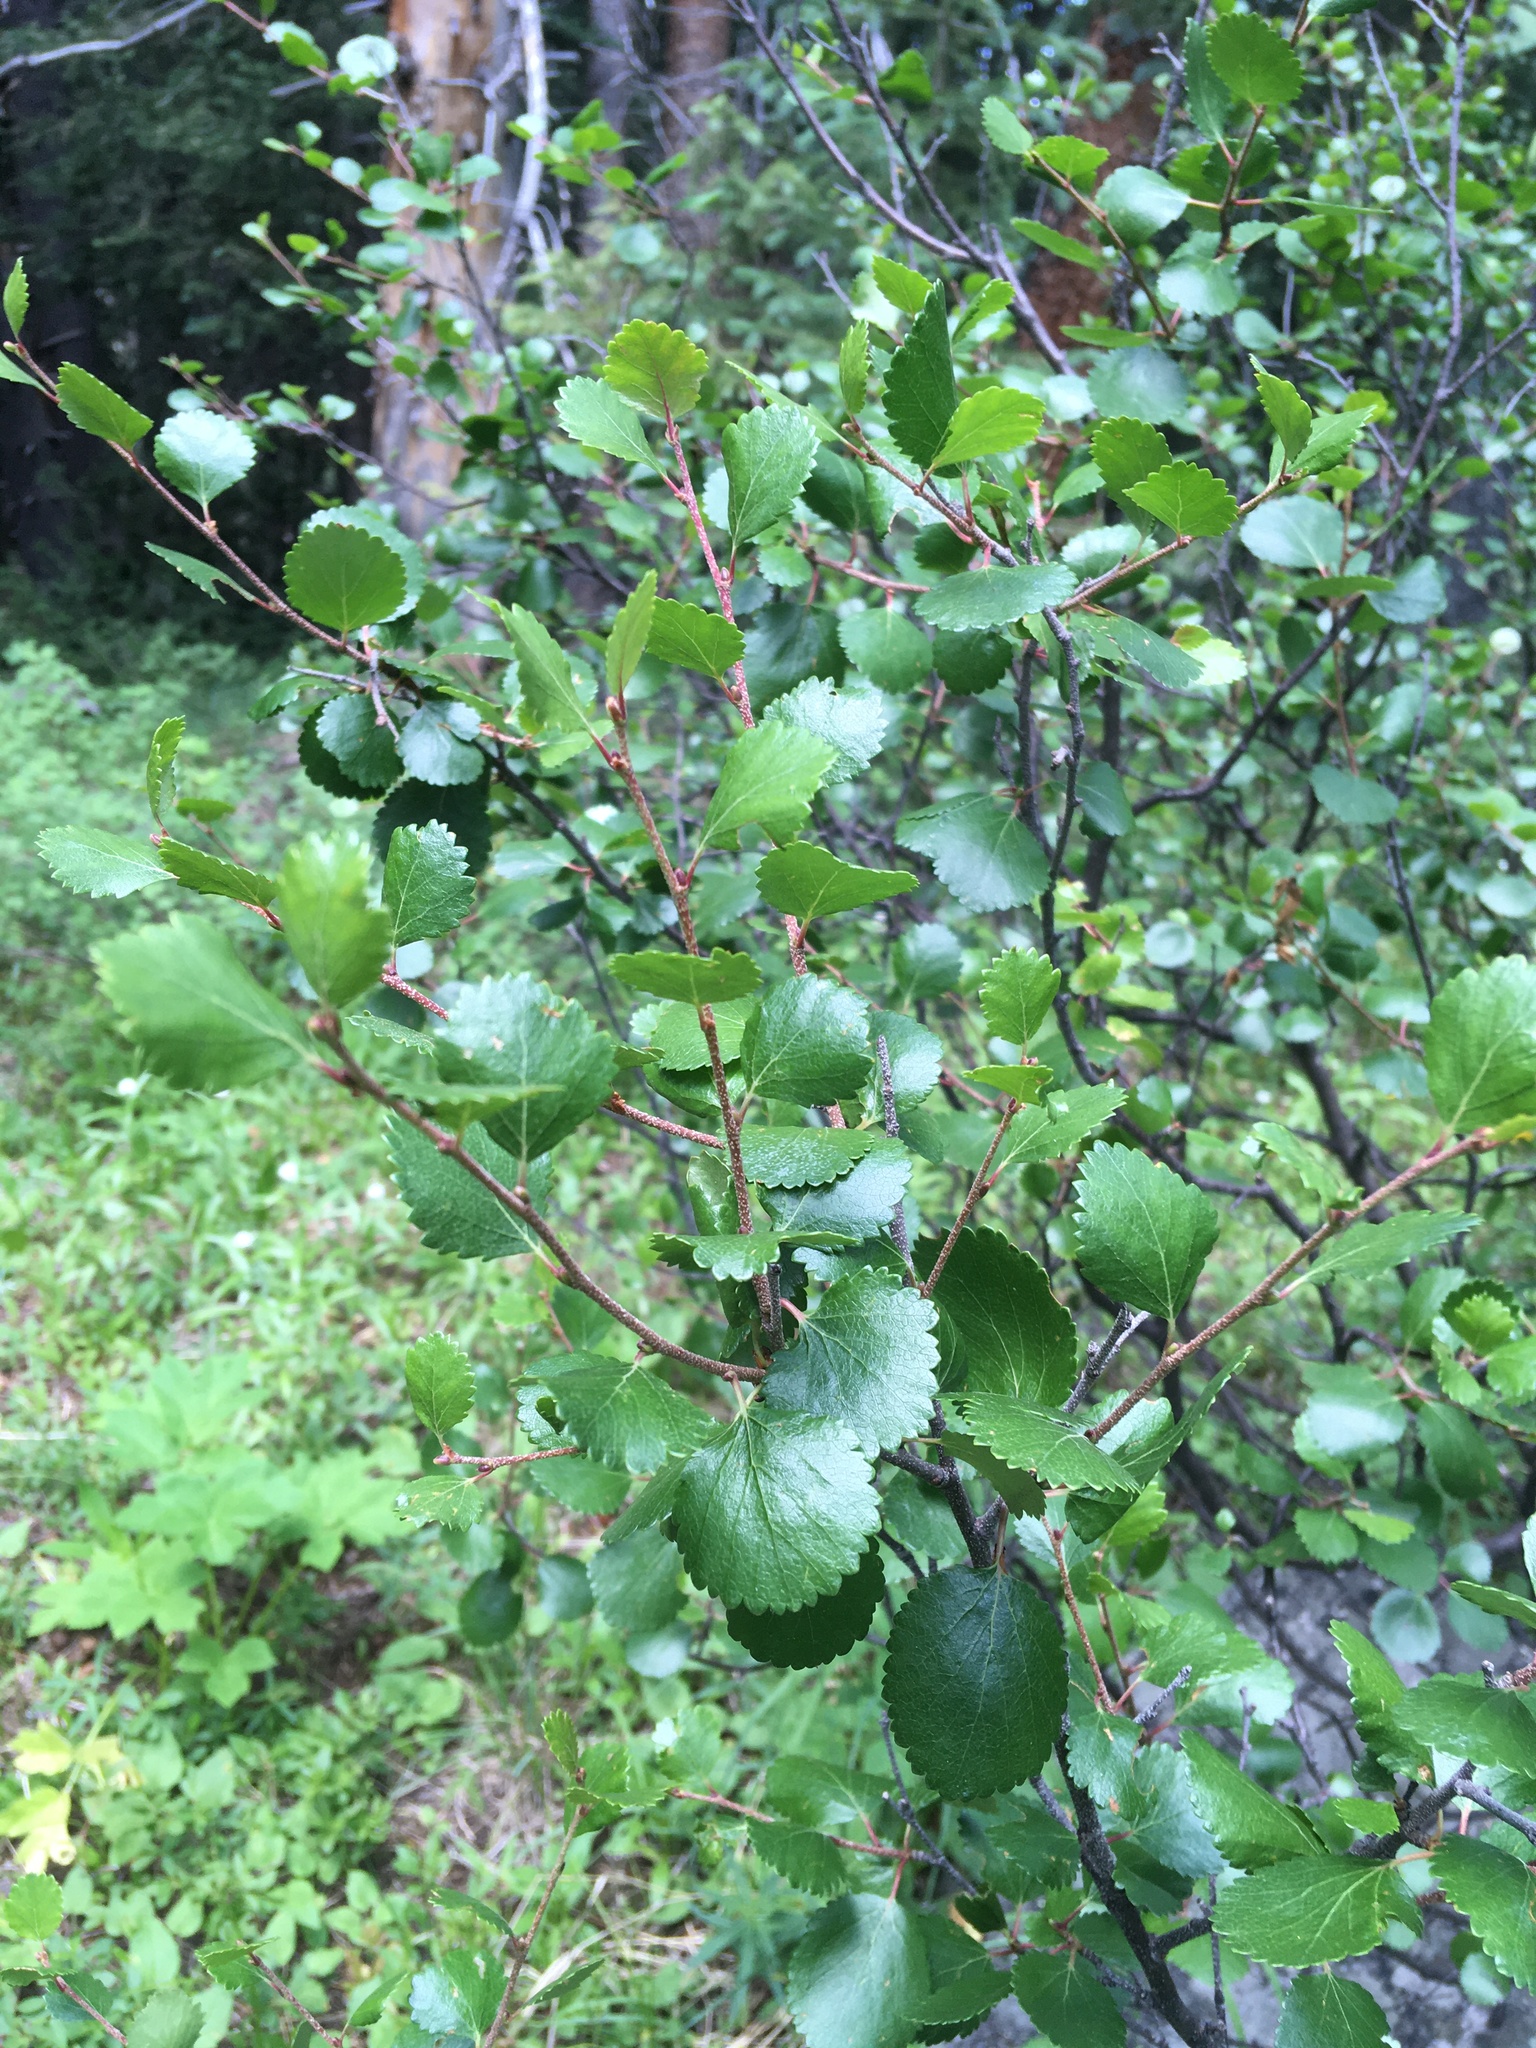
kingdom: Plantae
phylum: Tracheophyta
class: Magnoliopsida
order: Fagales
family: Betulaceae
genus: Betula
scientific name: Betula glandulosa
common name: Dwarf birch
